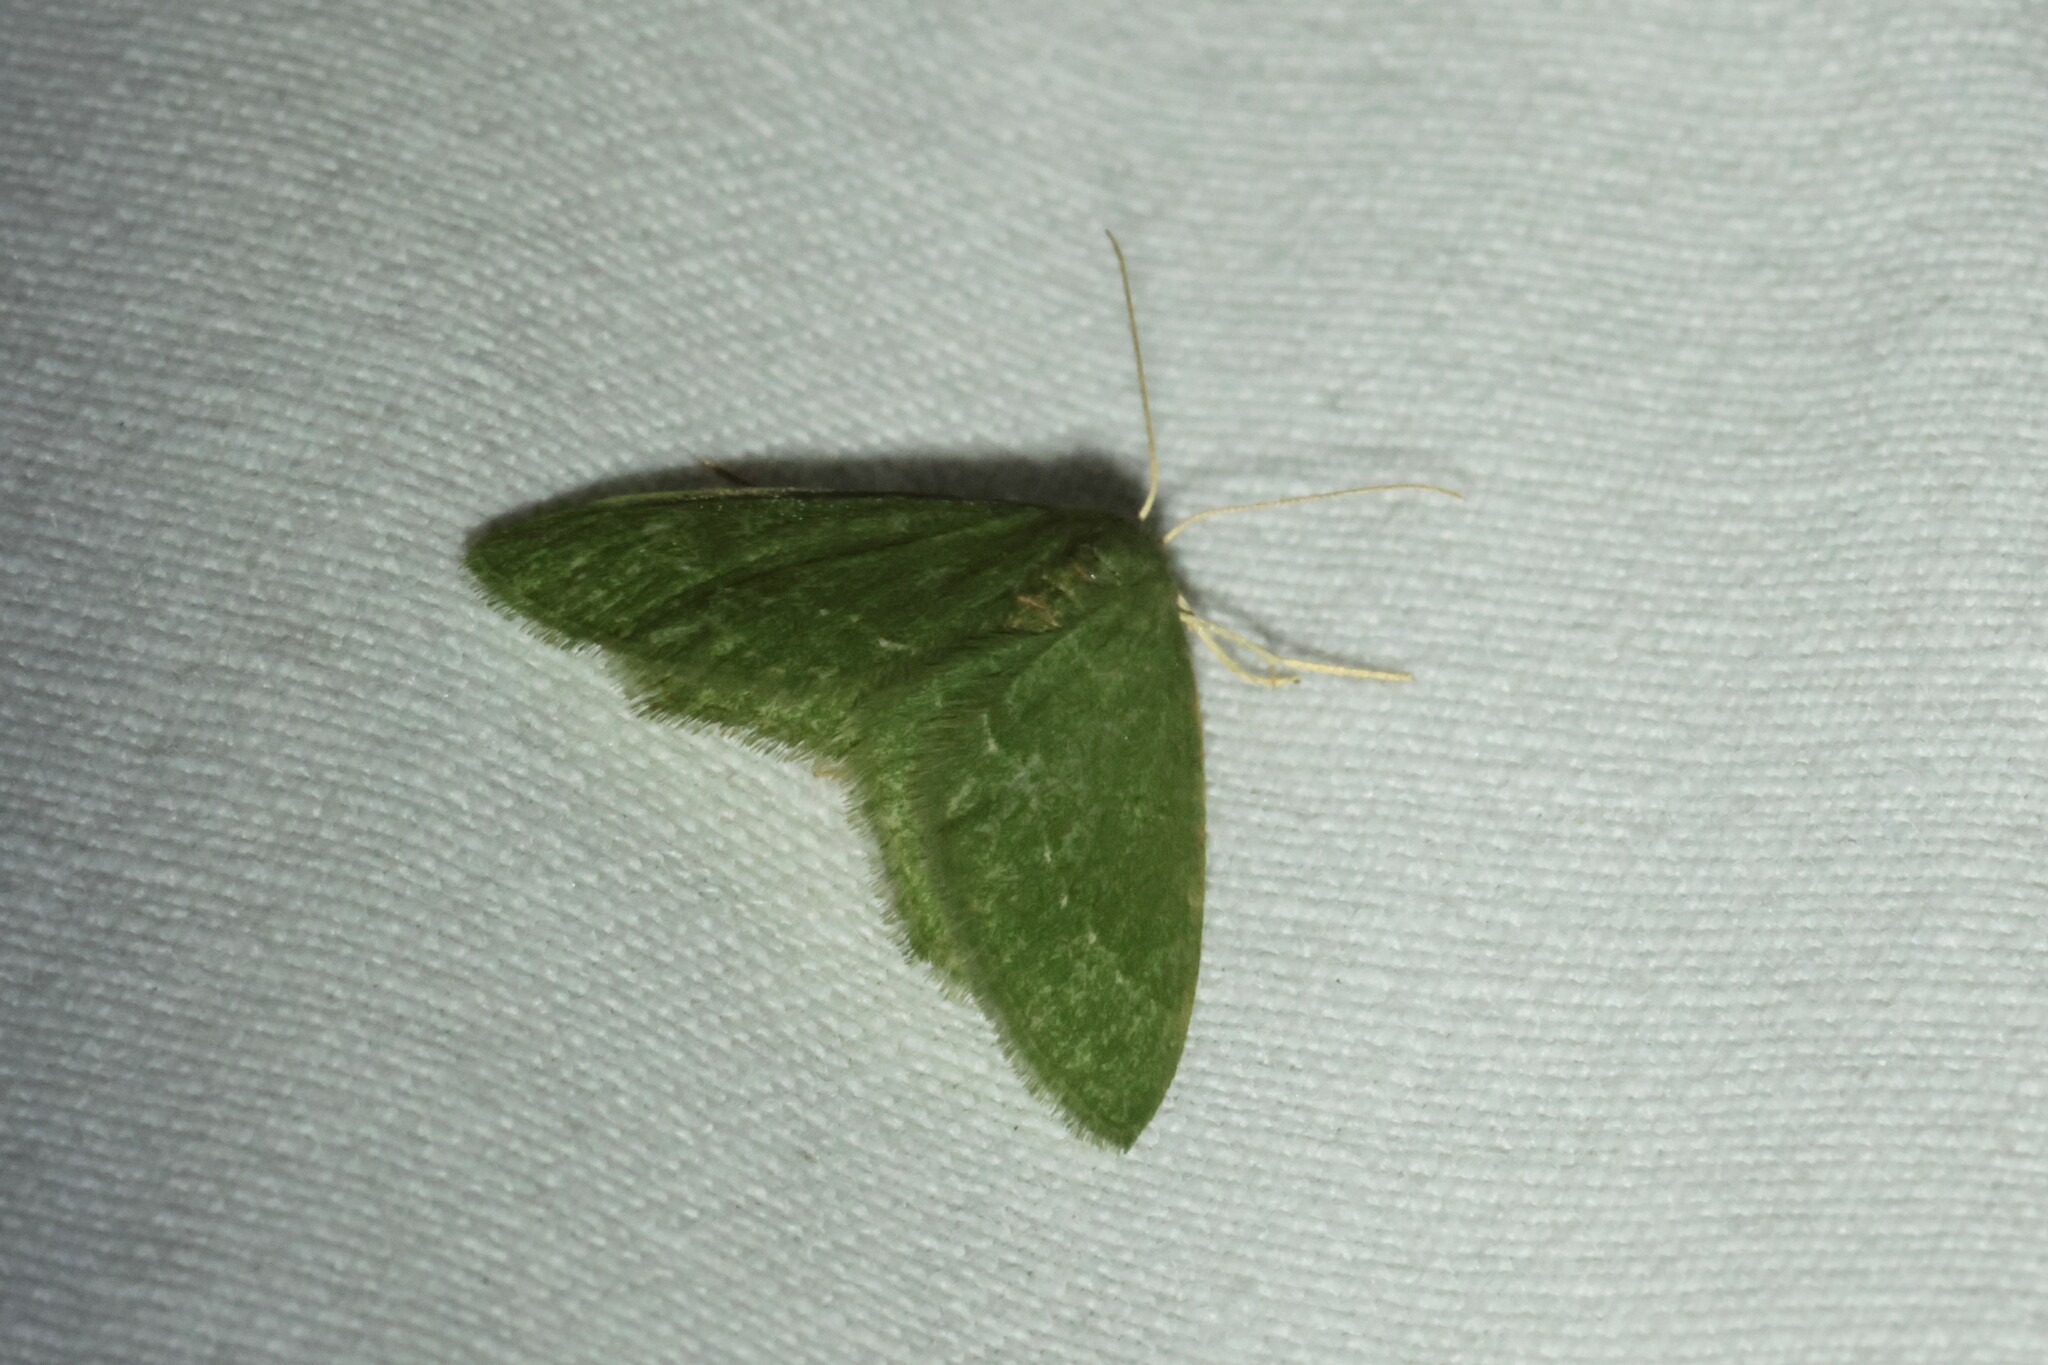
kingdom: Animalia
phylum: Arthropoda
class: Insecta
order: Lepidoptera
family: Geometridae
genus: Thalera
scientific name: Thalera pistasciaria
